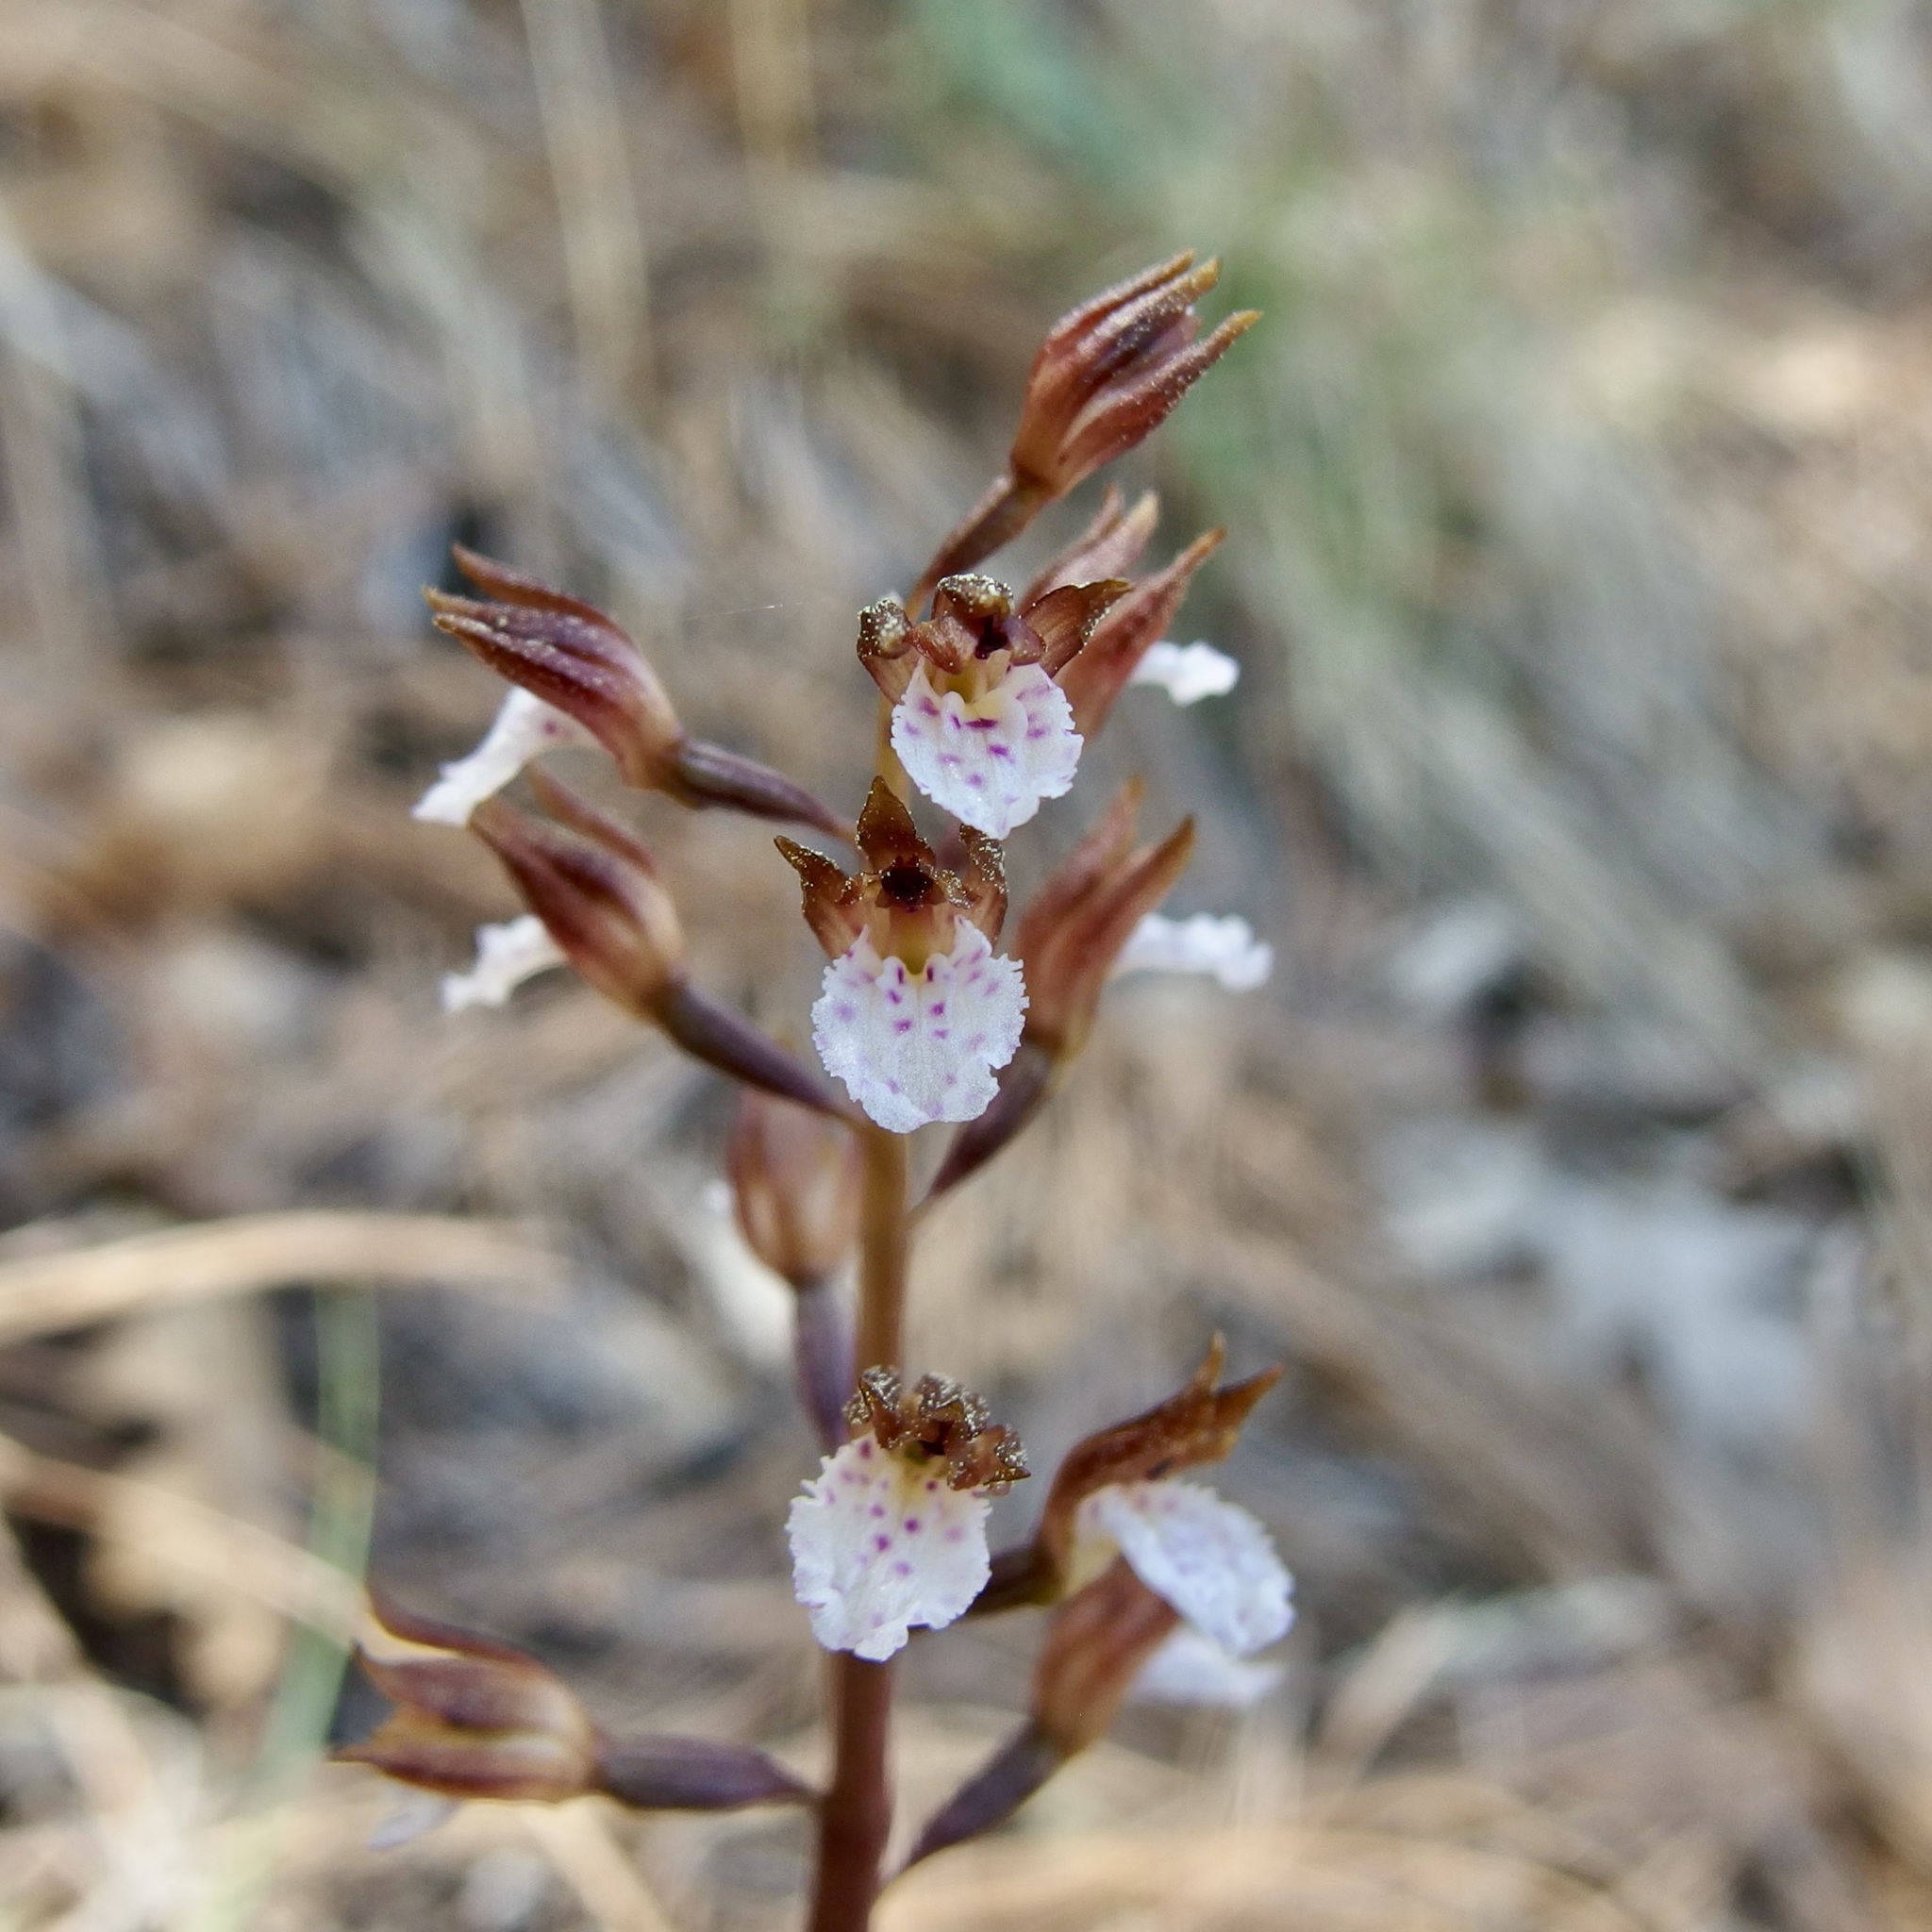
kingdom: Plantae
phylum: Tracheophyta
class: Liliopsida
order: Asparagales
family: Orchidaceae
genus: Corallorhiza
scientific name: Corallorhiza wisteriana
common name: Spring coralroot
